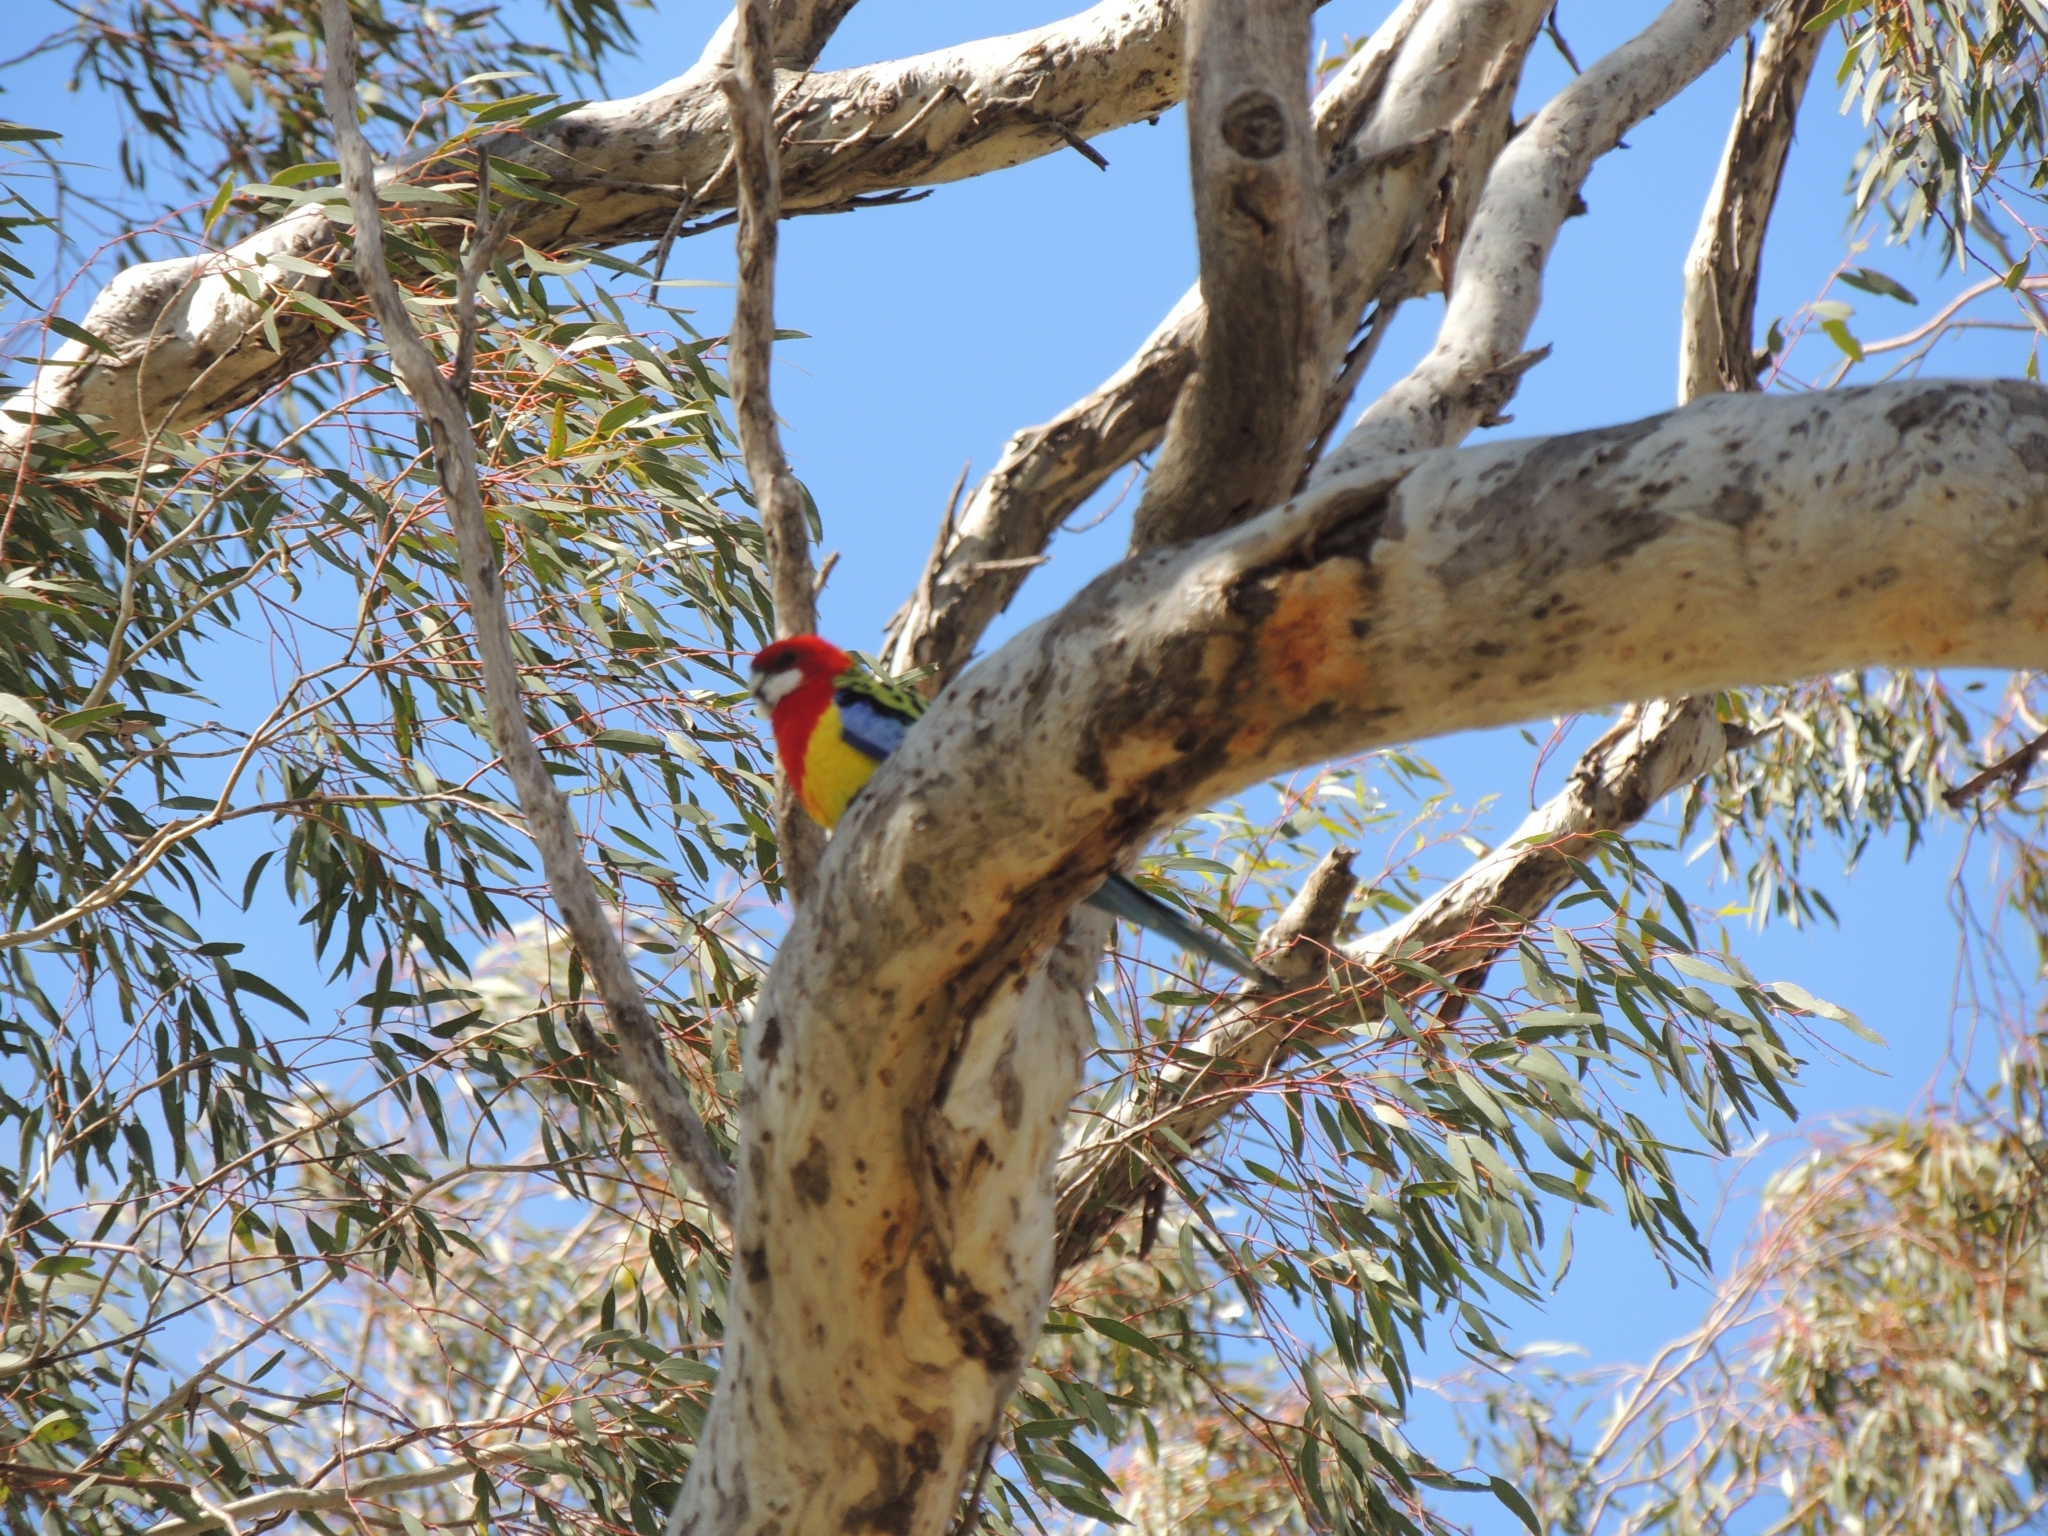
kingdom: Animalia
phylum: Chordata
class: Aves
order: Psittaciformes
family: Psittacidae
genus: Platycercus
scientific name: Platycercus eximius
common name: Eastern rosella
